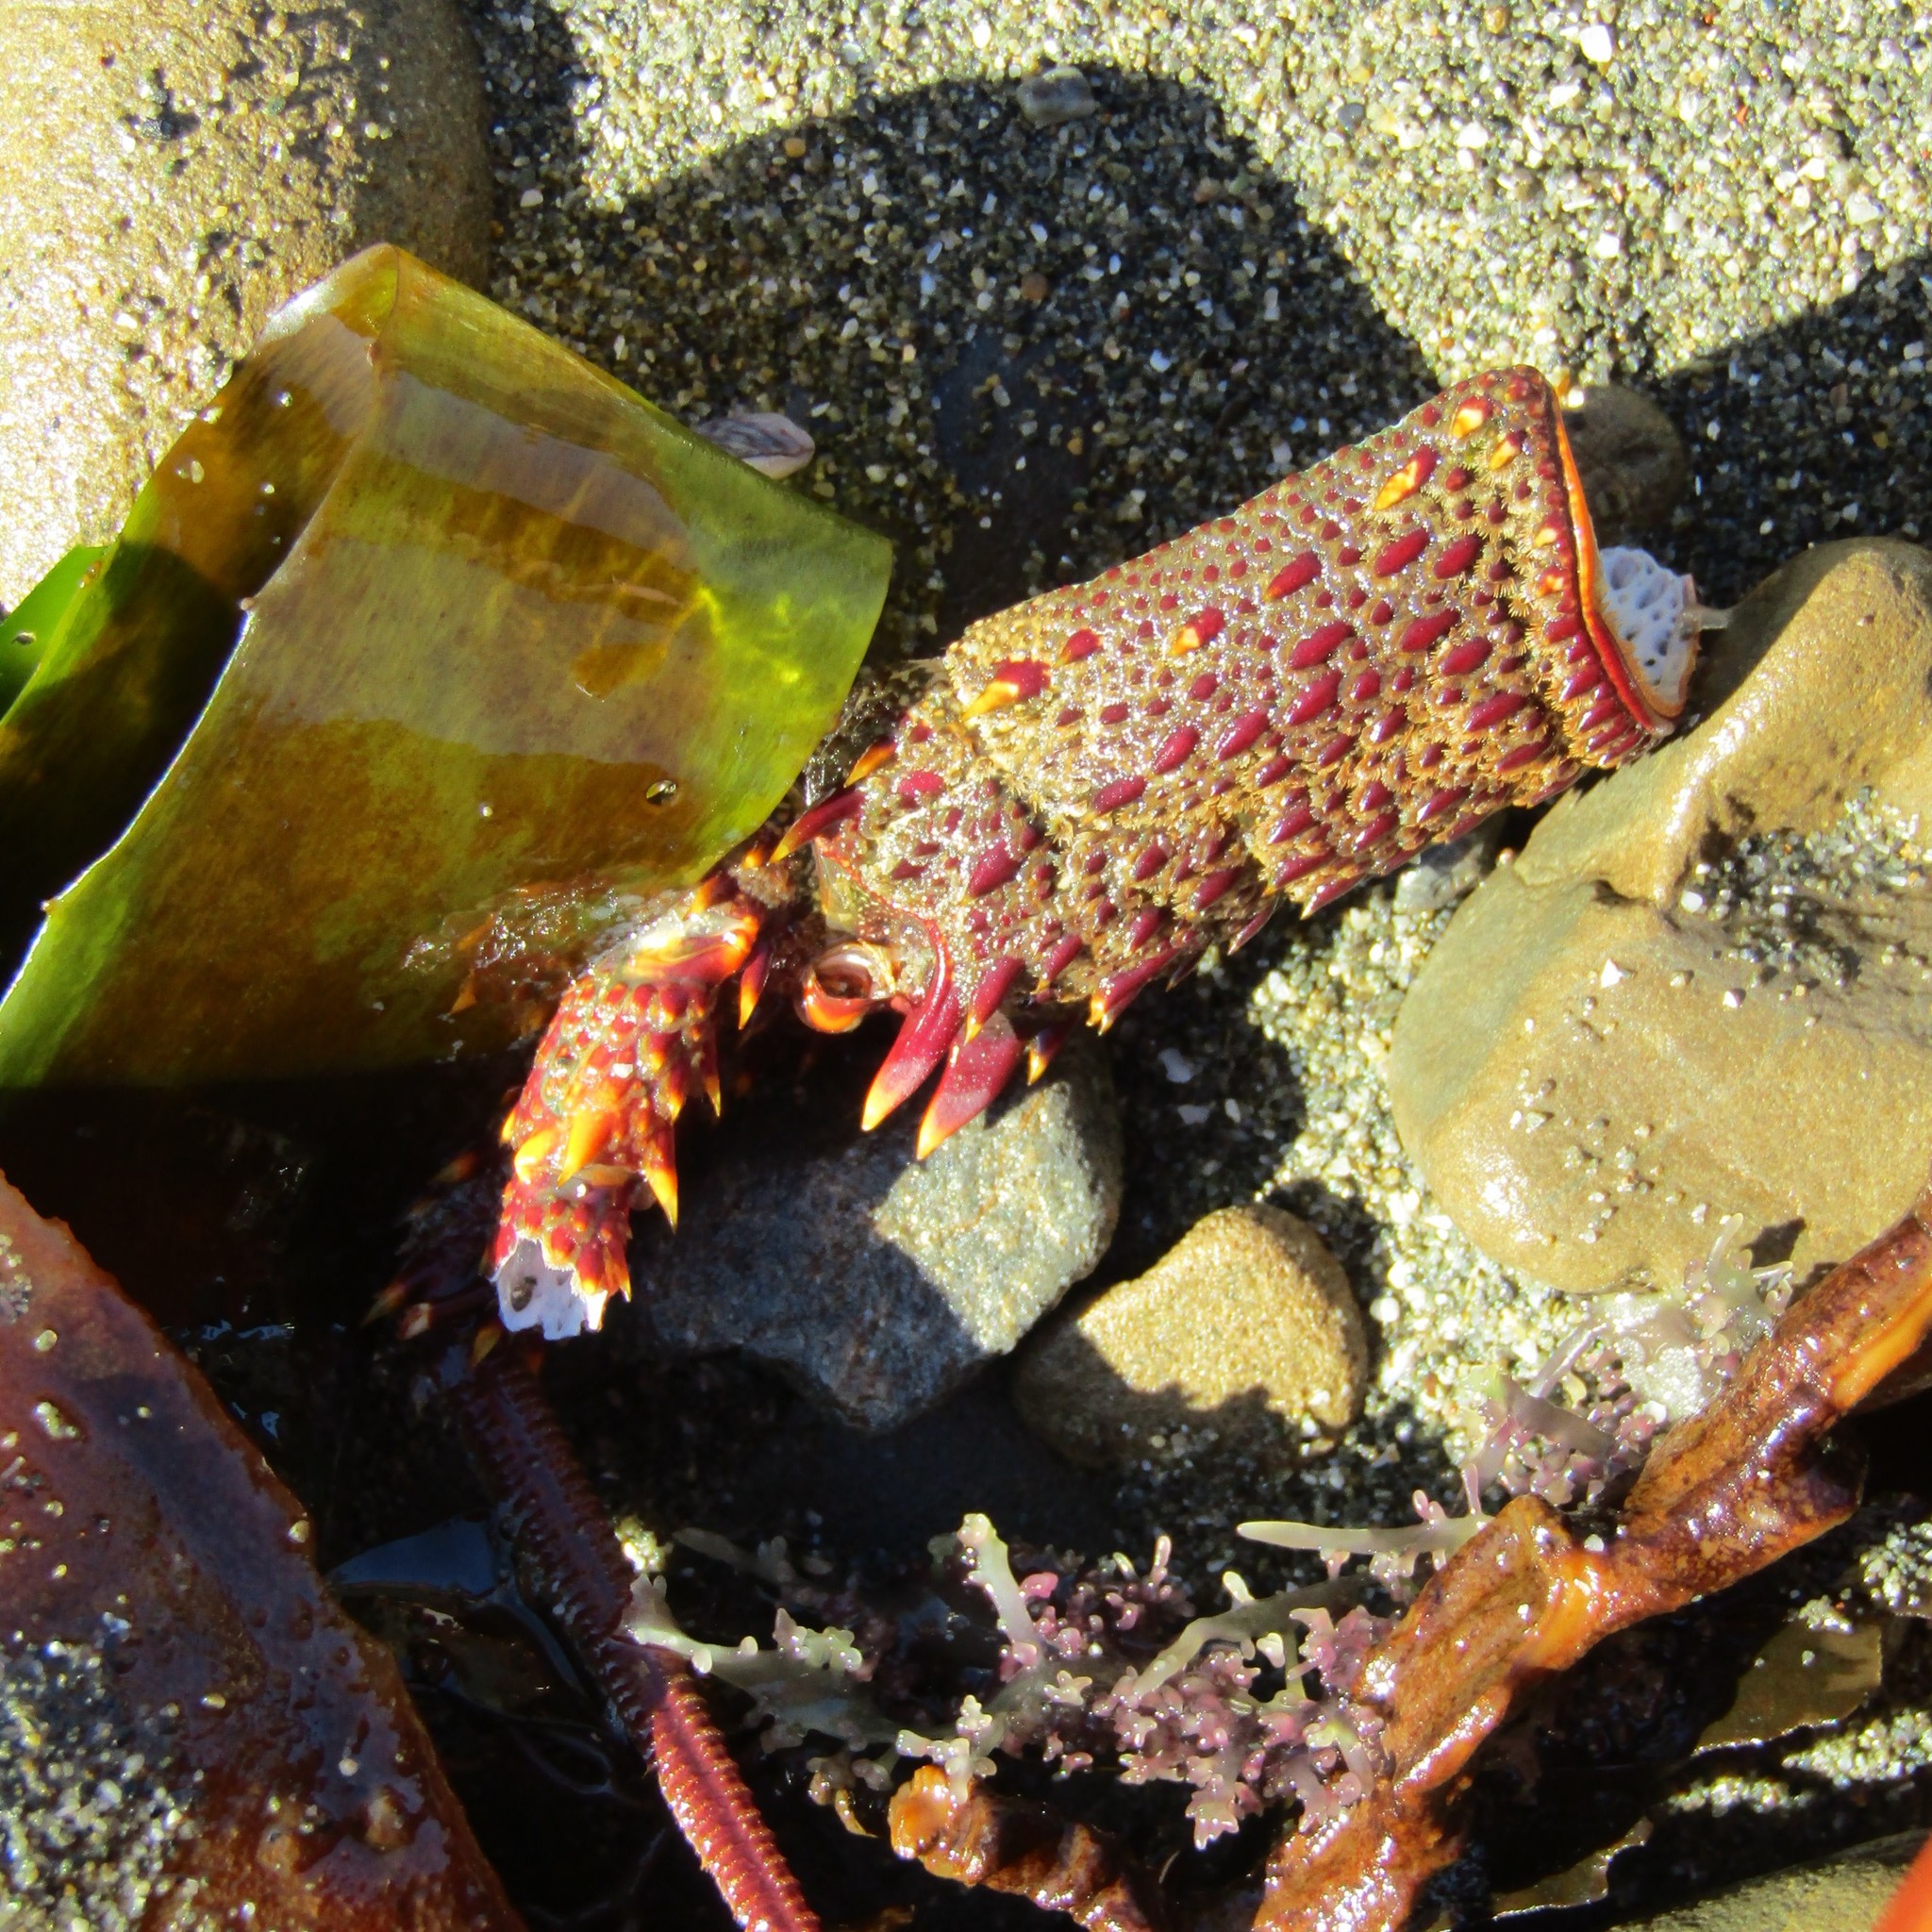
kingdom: Animalia
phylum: Arthropoda
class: Malacostraca
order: Decapoda
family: Palinuridae
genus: Jasus
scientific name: Jasus edwardsii
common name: Red rock lobster
